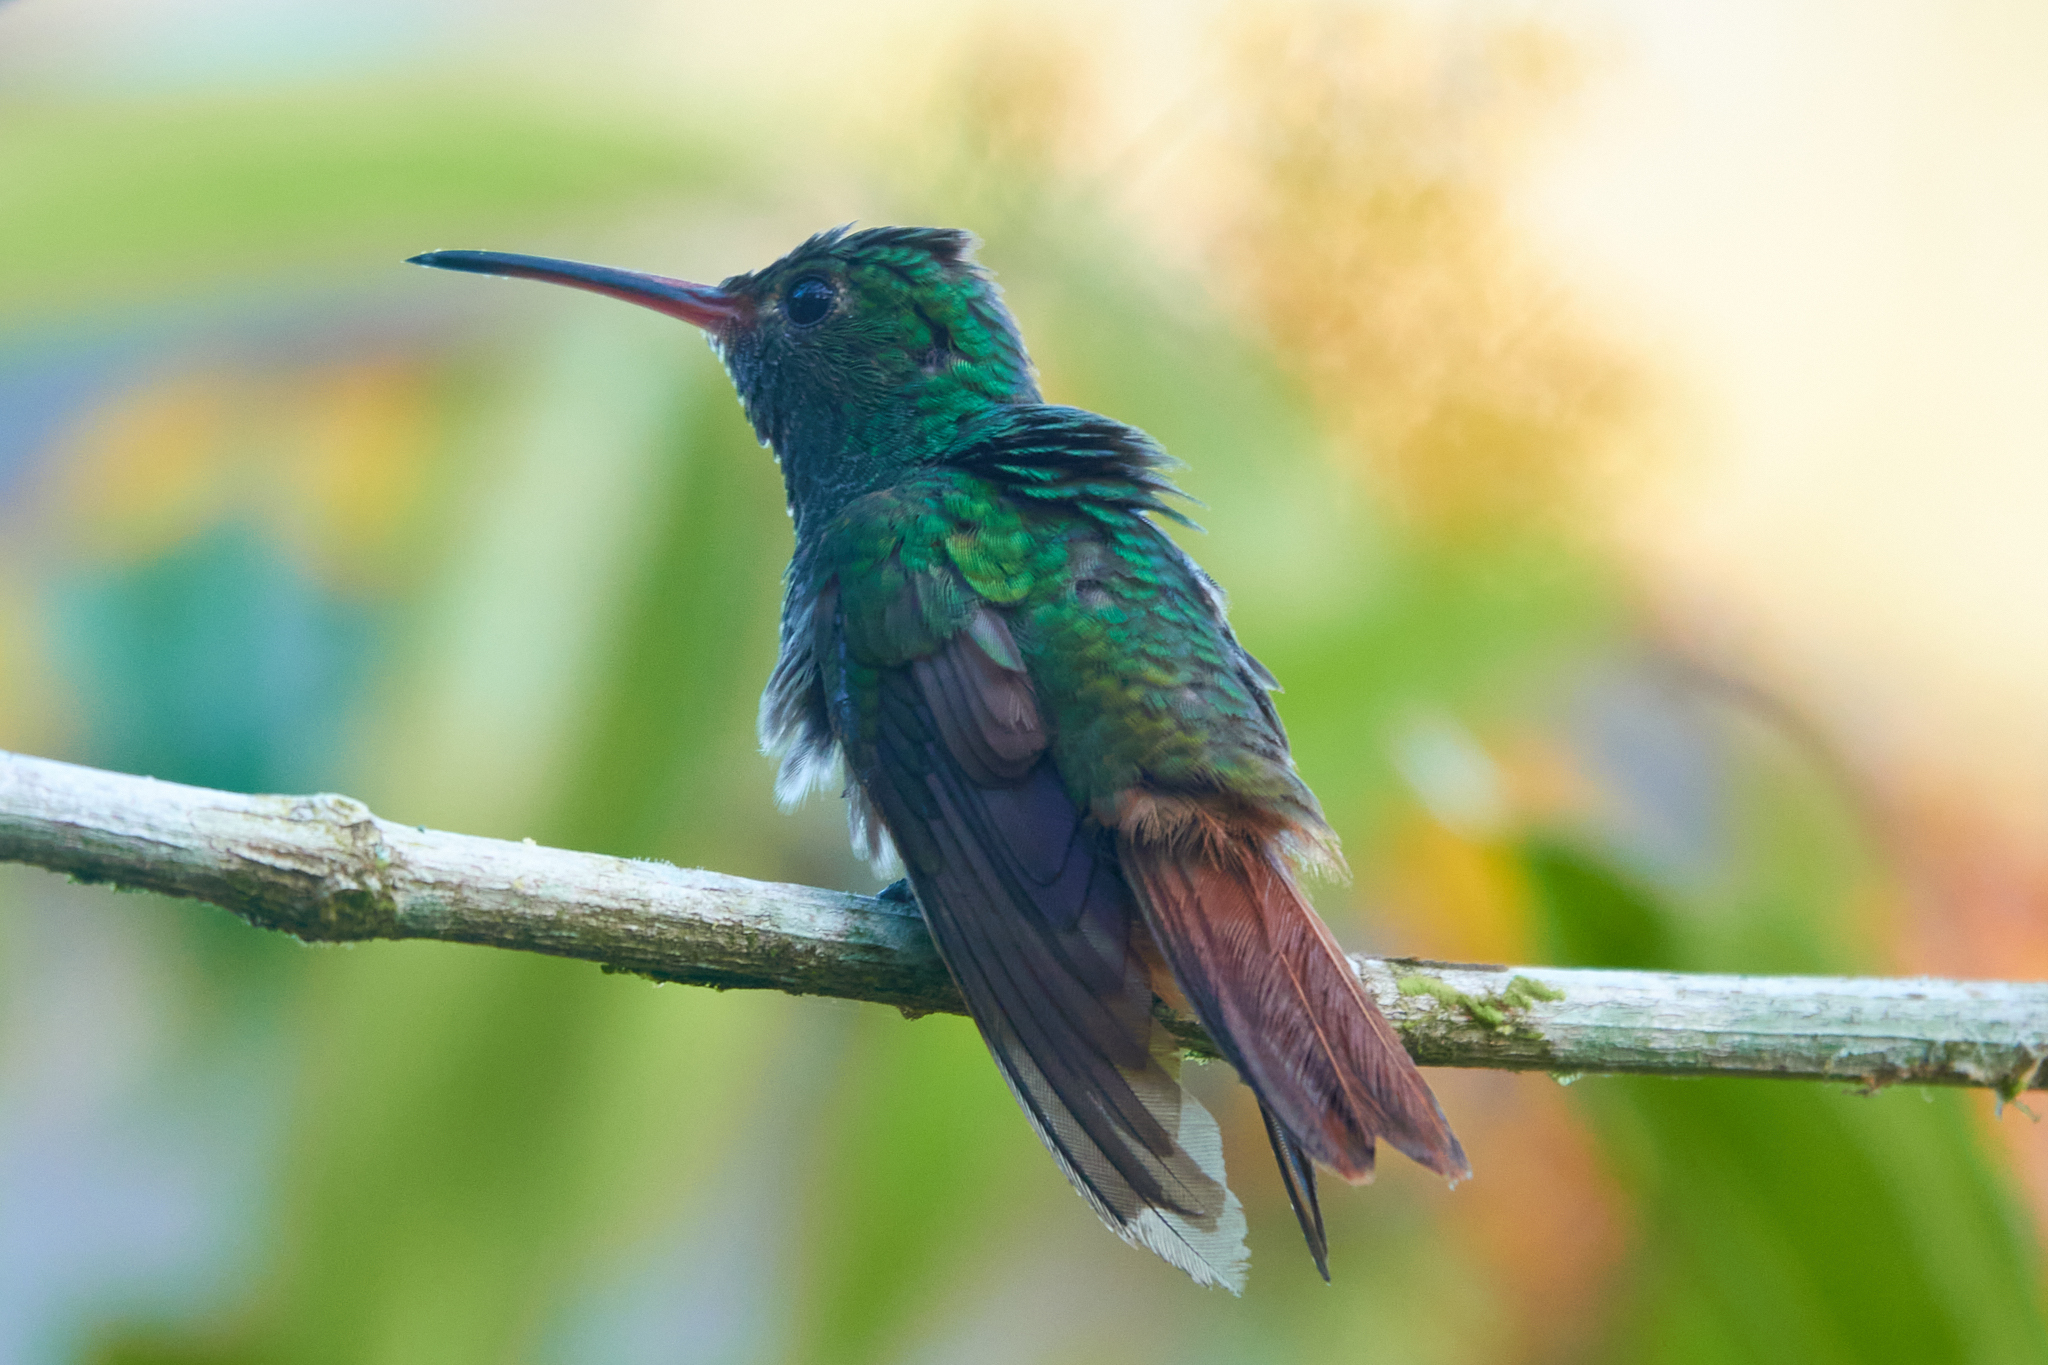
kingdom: Animalia
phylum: Chordata
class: Aves
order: Apodiformes
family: Trochilidae
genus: Amazilia
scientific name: Amazilia tzacatl
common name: Rufous-tailed hummingbird
